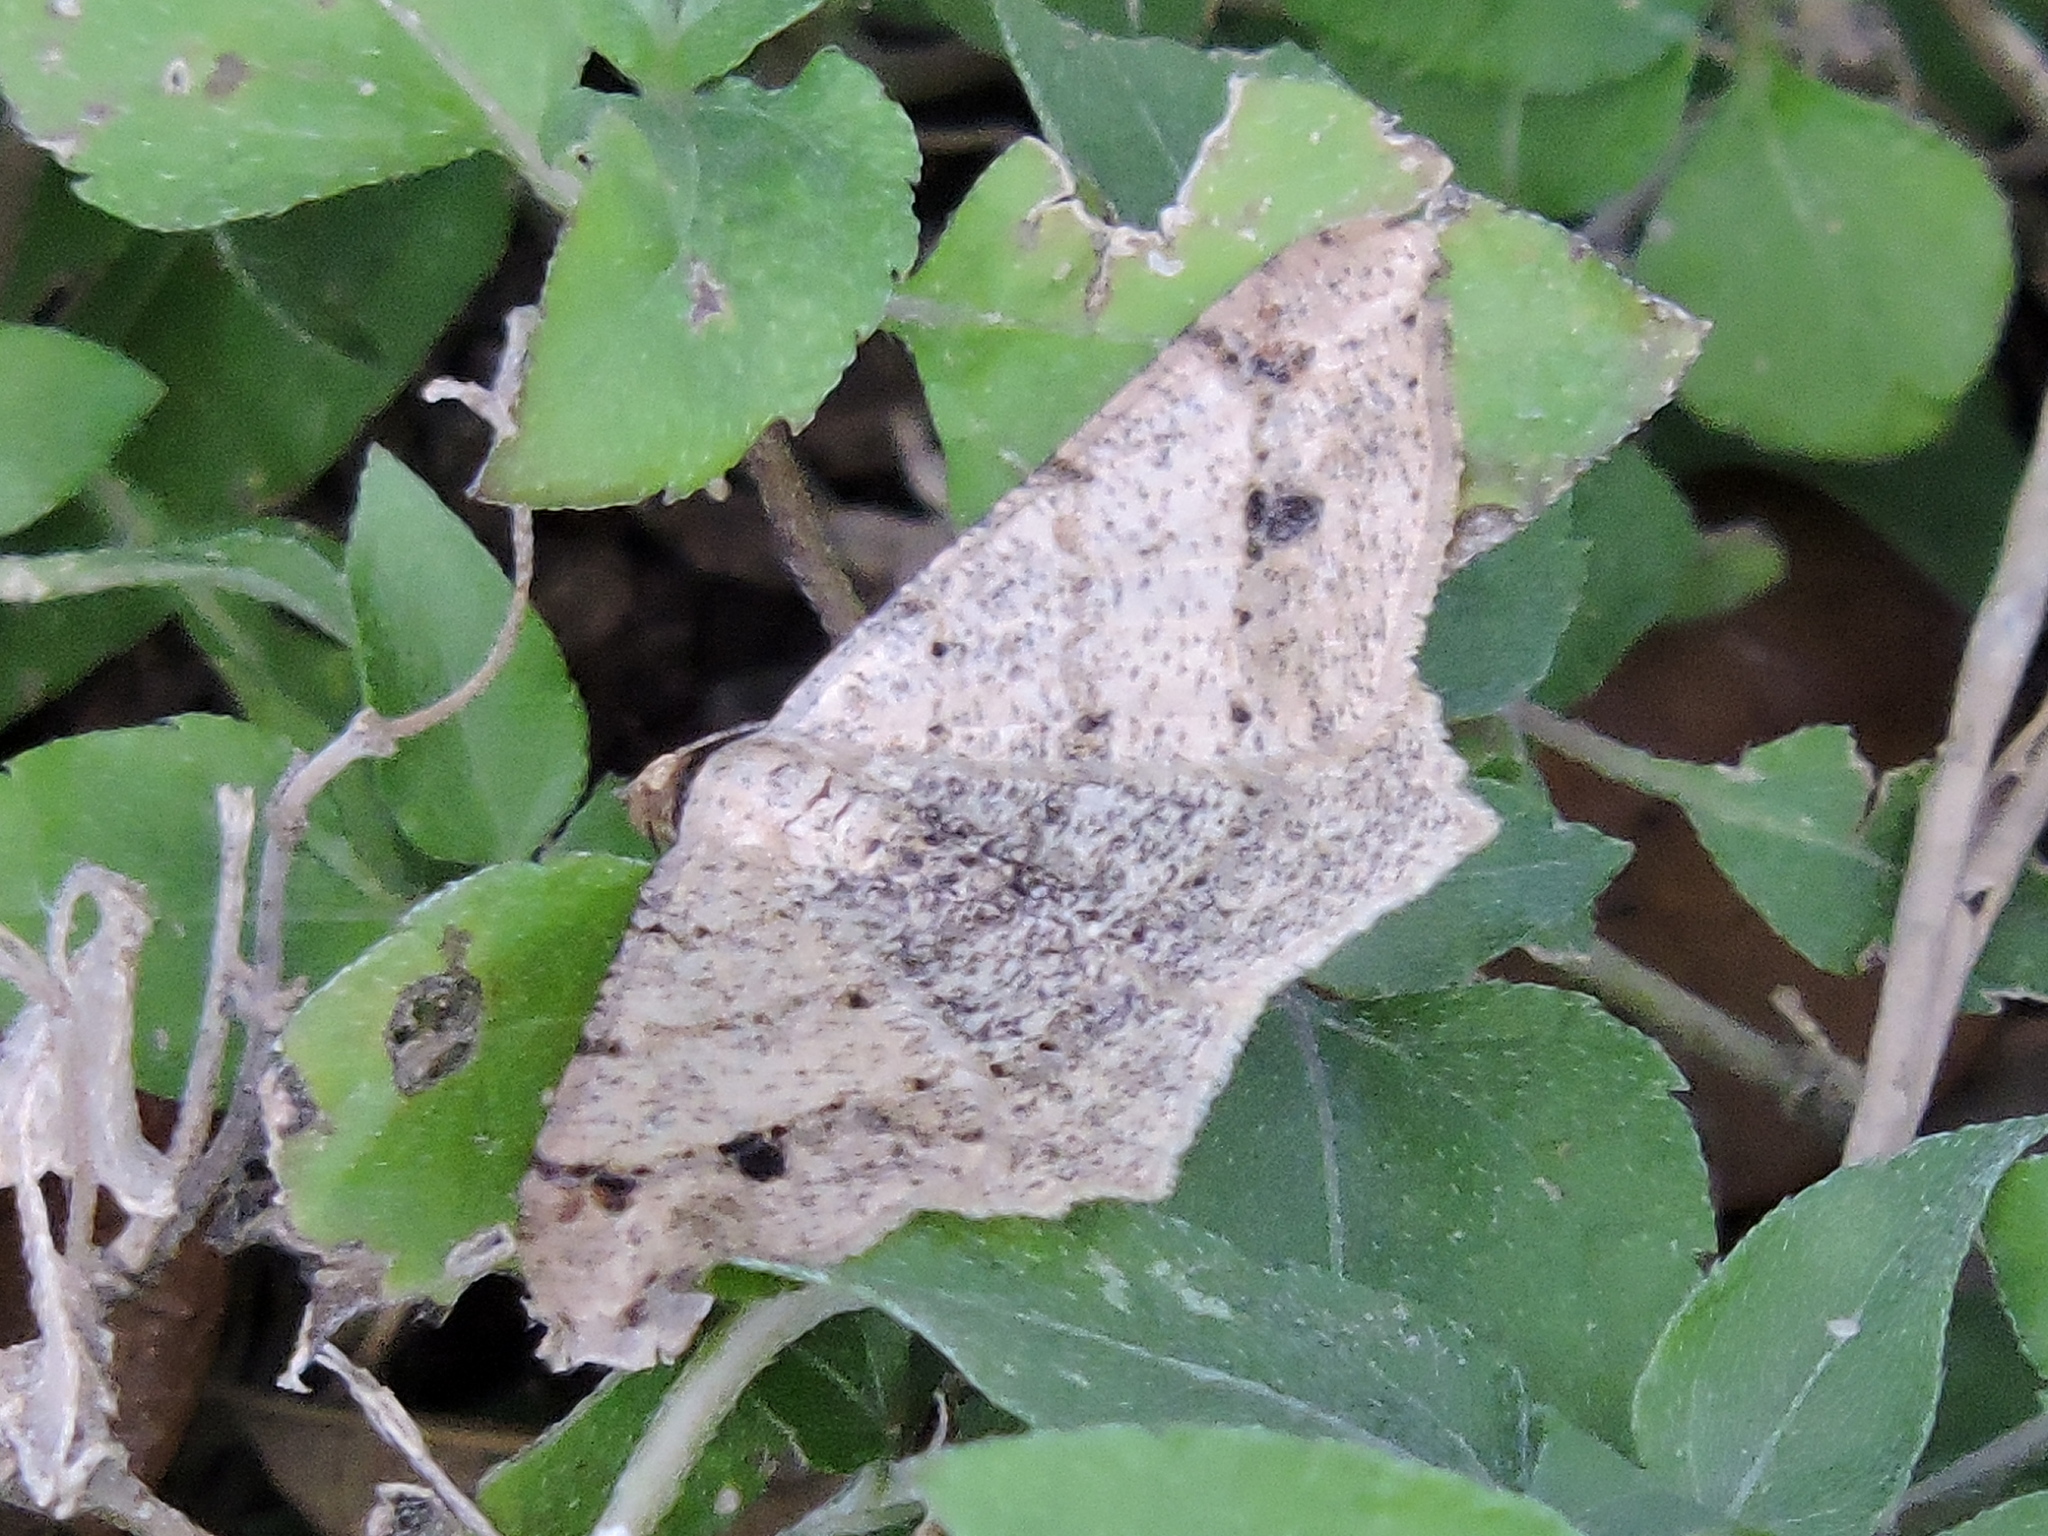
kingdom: Animalia
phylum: Arthropoda
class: Insecta
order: Lepidoptera
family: Geometridae
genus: Macaria
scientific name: Macaria abydata
